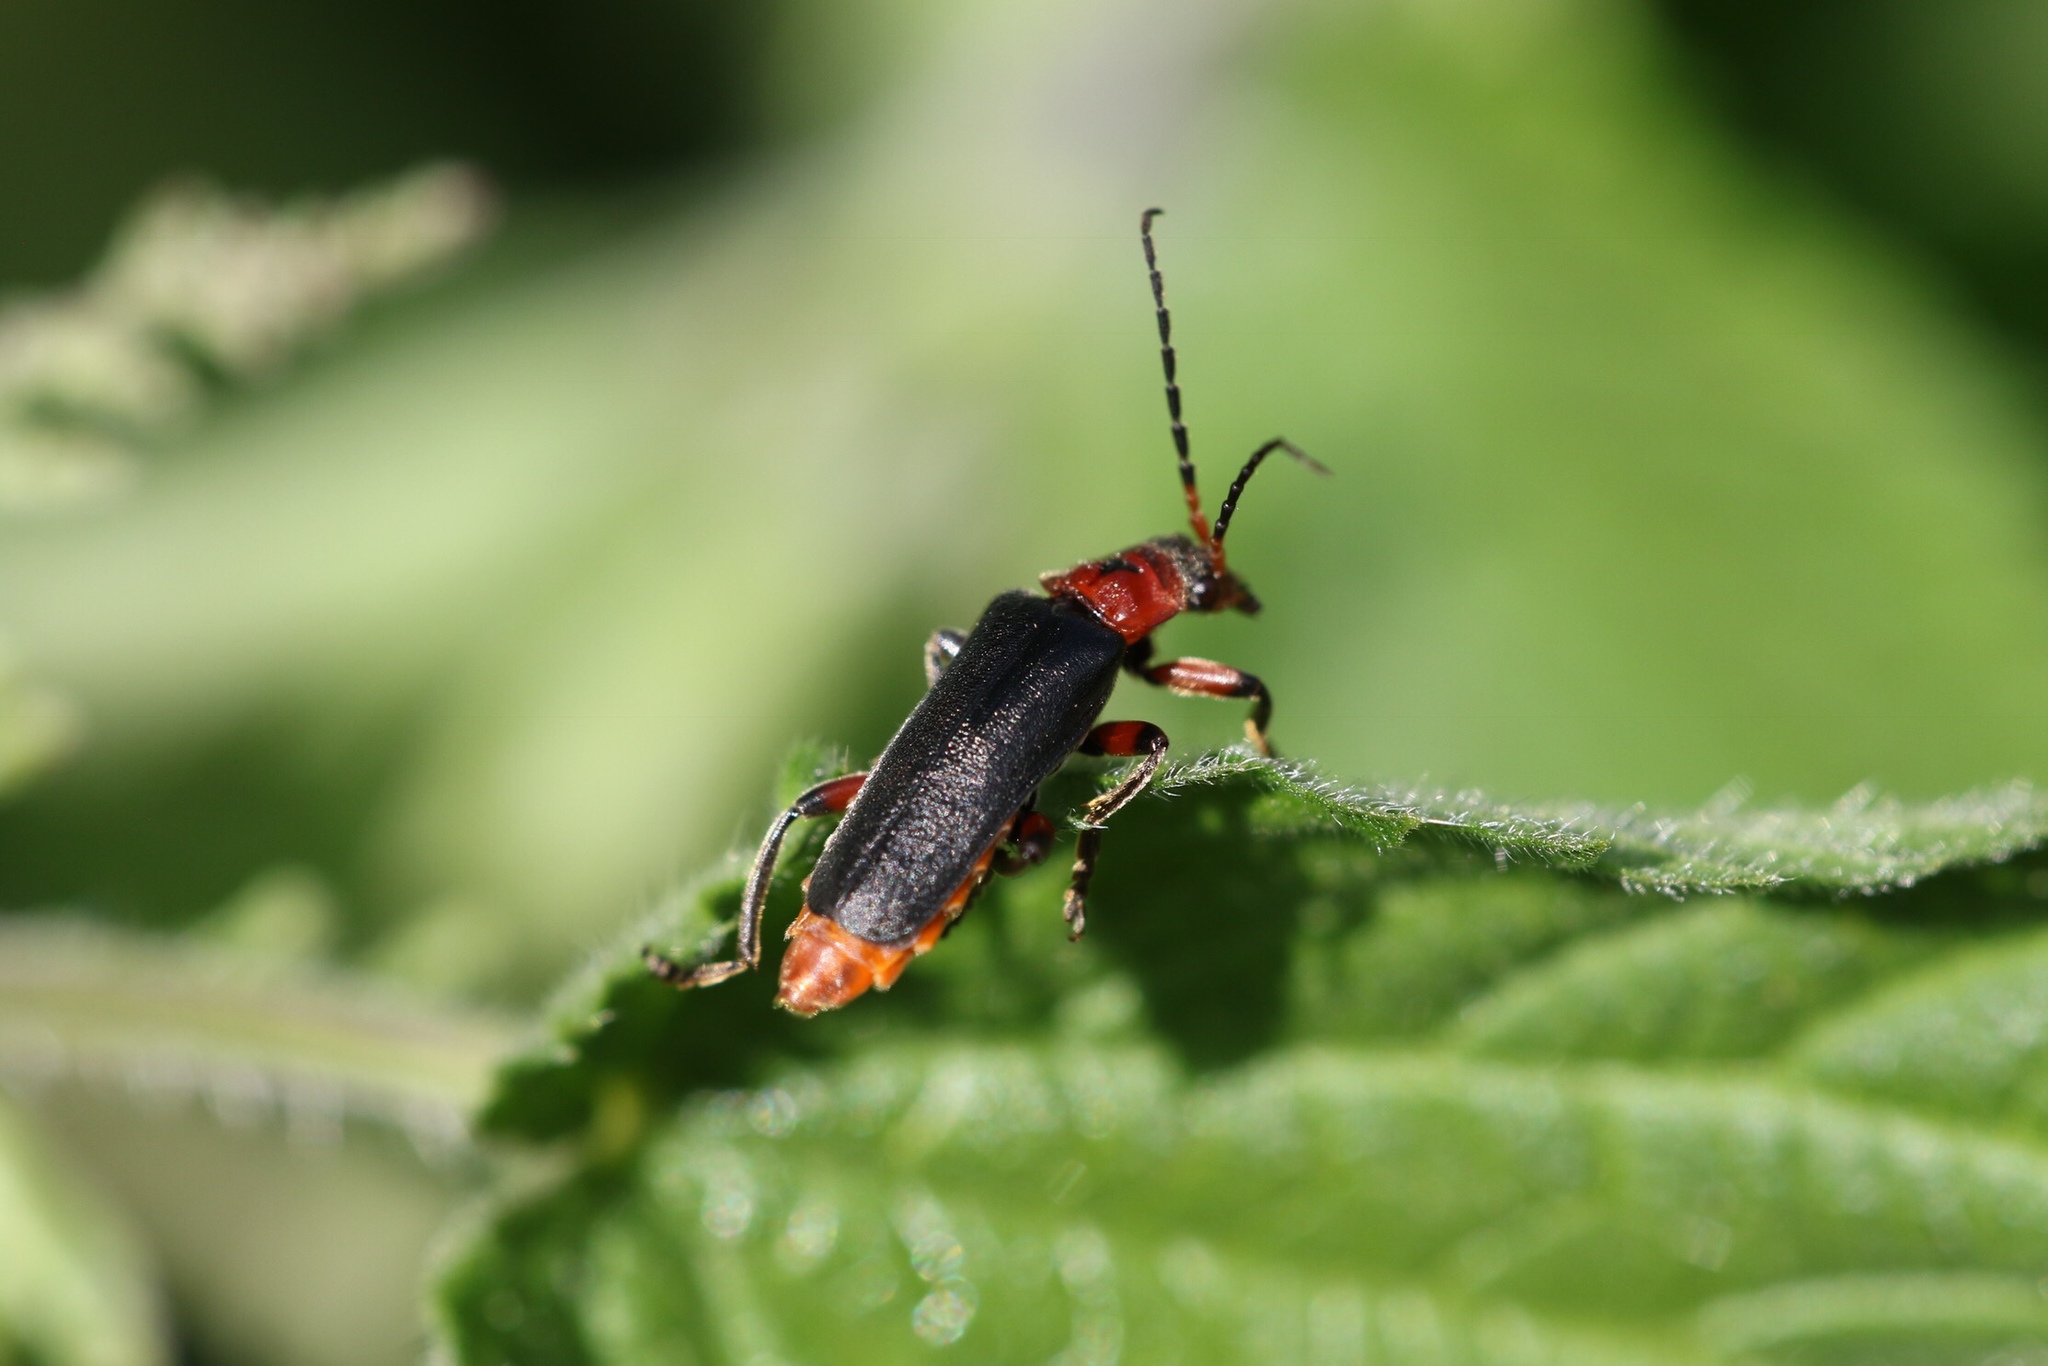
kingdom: Animalia
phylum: Arthropoda
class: Insecta
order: Coleoptera
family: Cantharidae
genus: Cantharis
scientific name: Cantharis rustica
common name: Soldier beetle
